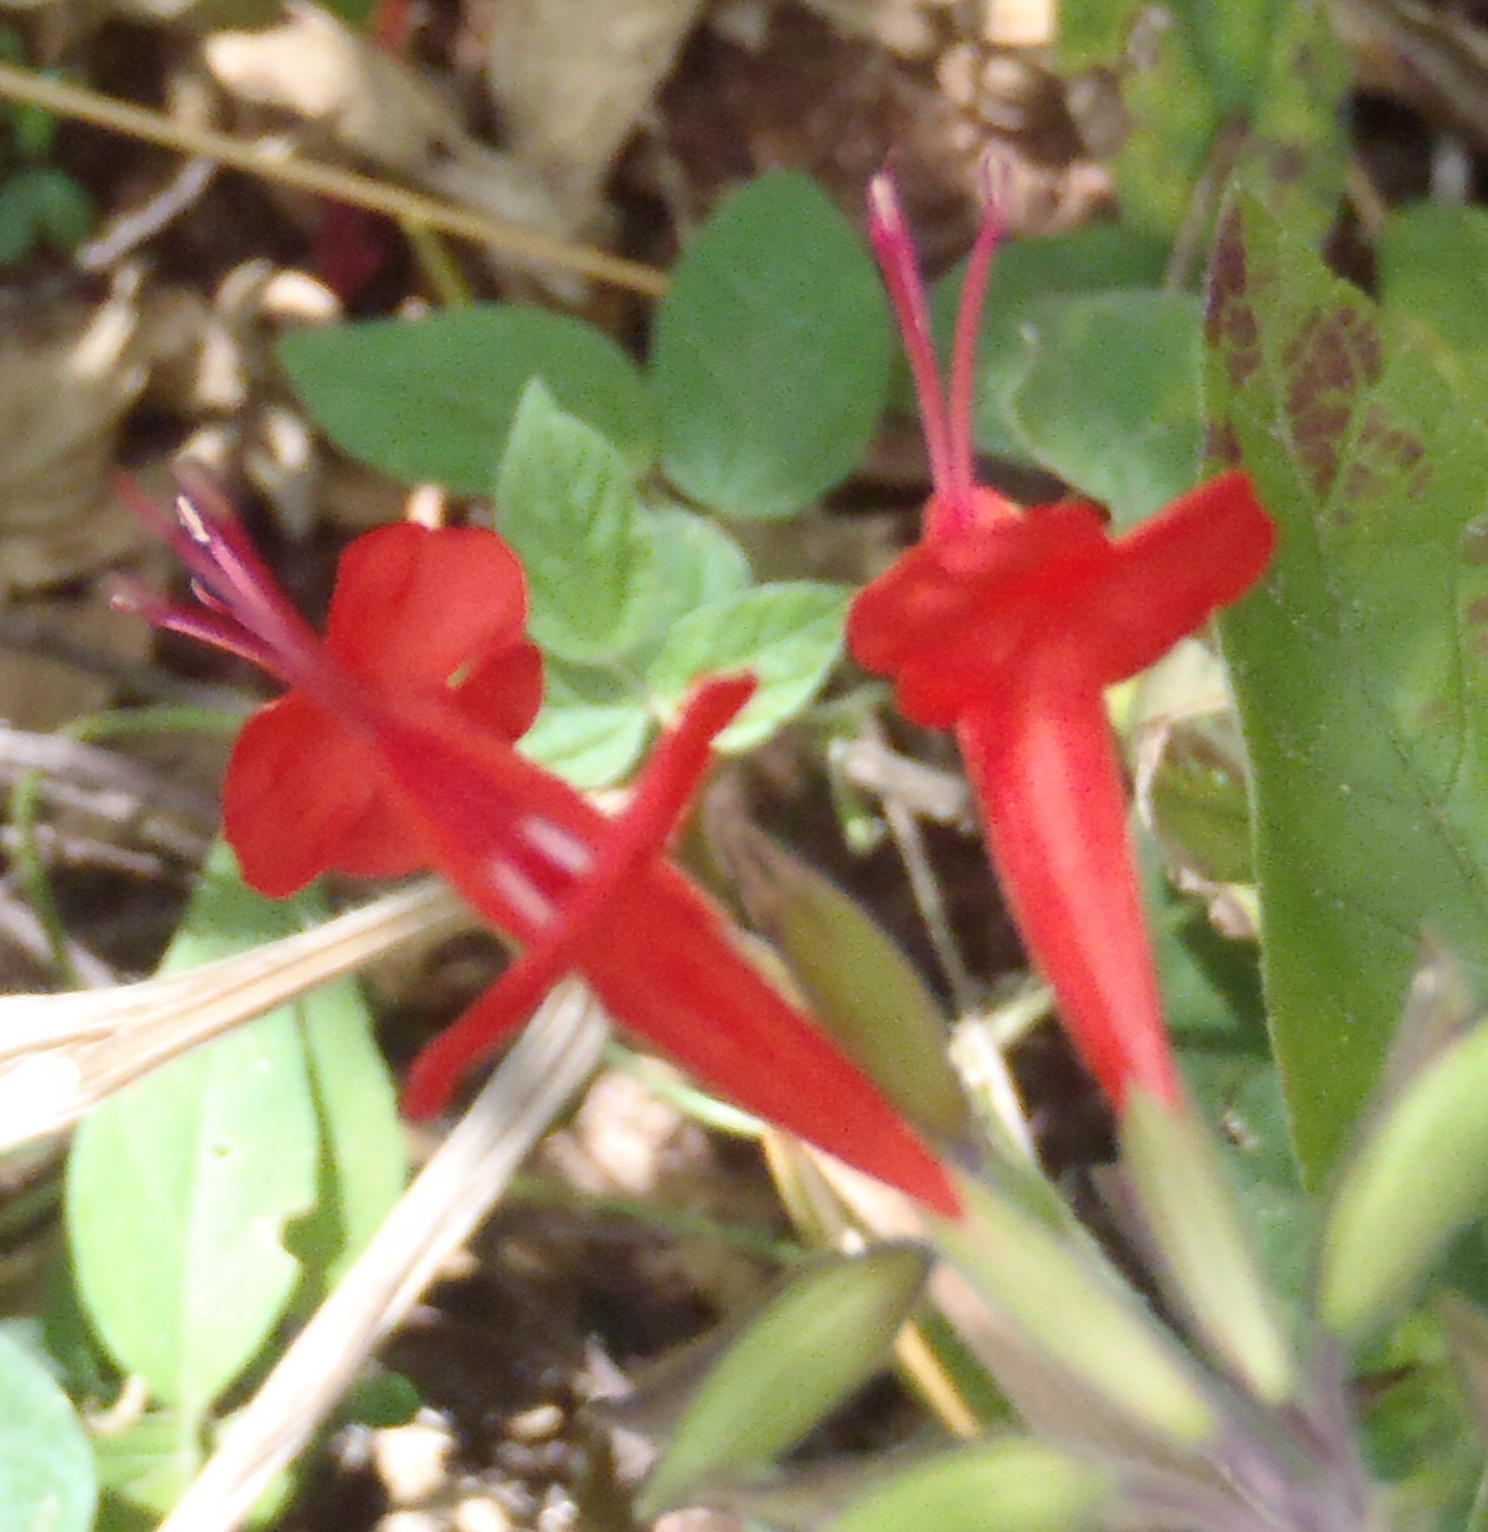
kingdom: Plantae
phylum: Tracheophyta
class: Magnoliopsida
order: Lamiales
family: Lamiaceae
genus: Salvia
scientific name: Salvia coccinea
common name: Blood sage
